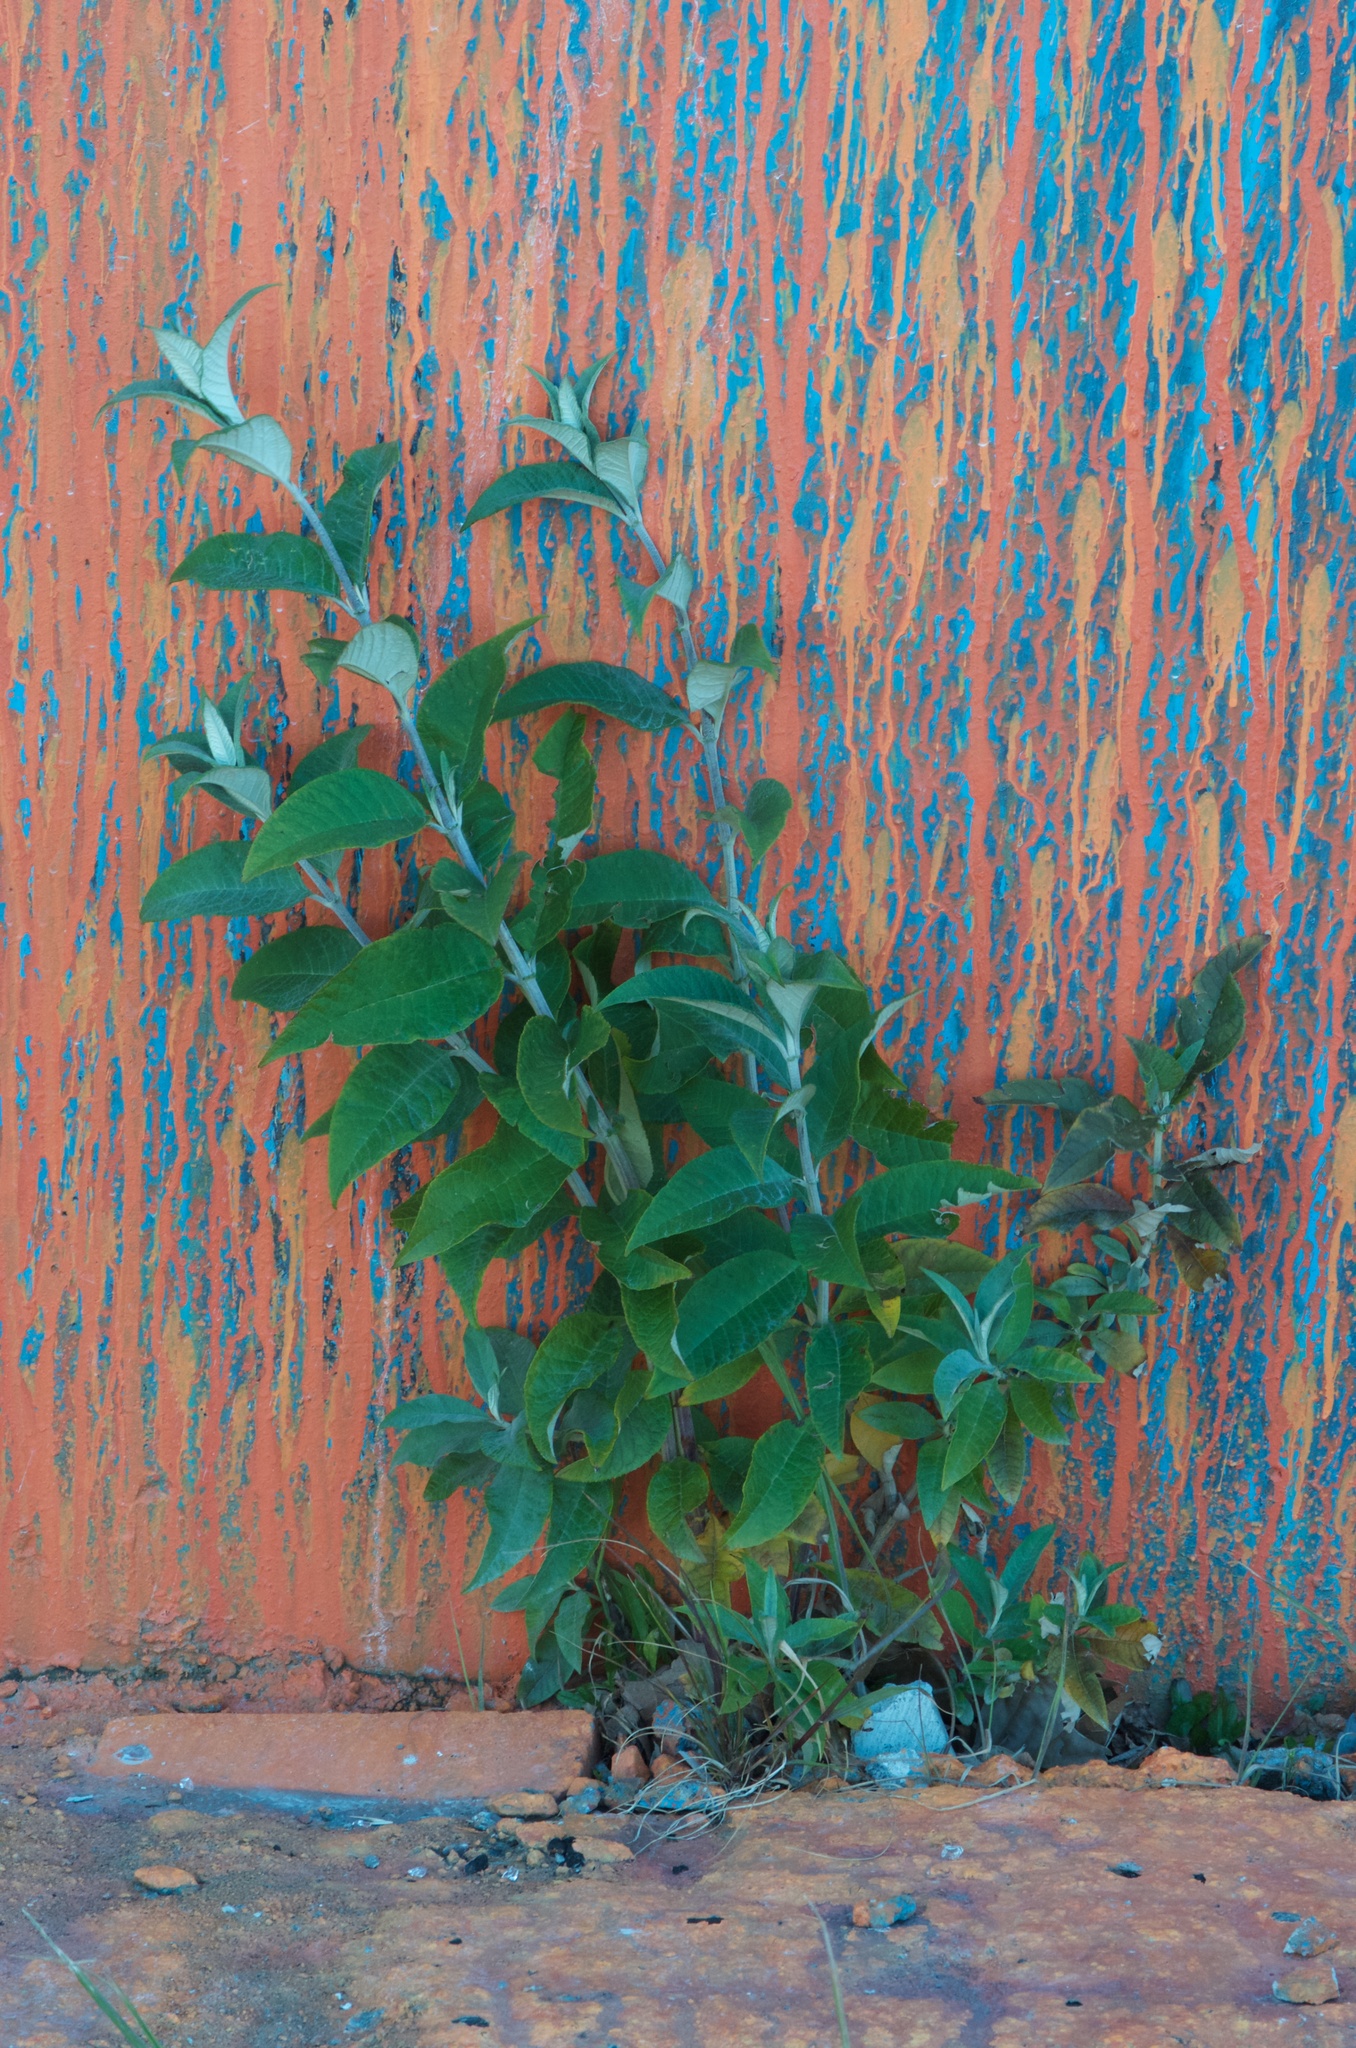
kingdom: Plantae
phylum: Tracheophyta
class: Magnoliopsida
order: Lamiales
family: Scrophulariaceae
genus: Buddleja
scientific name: Buddleja davidii
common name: Butterfly-bush
